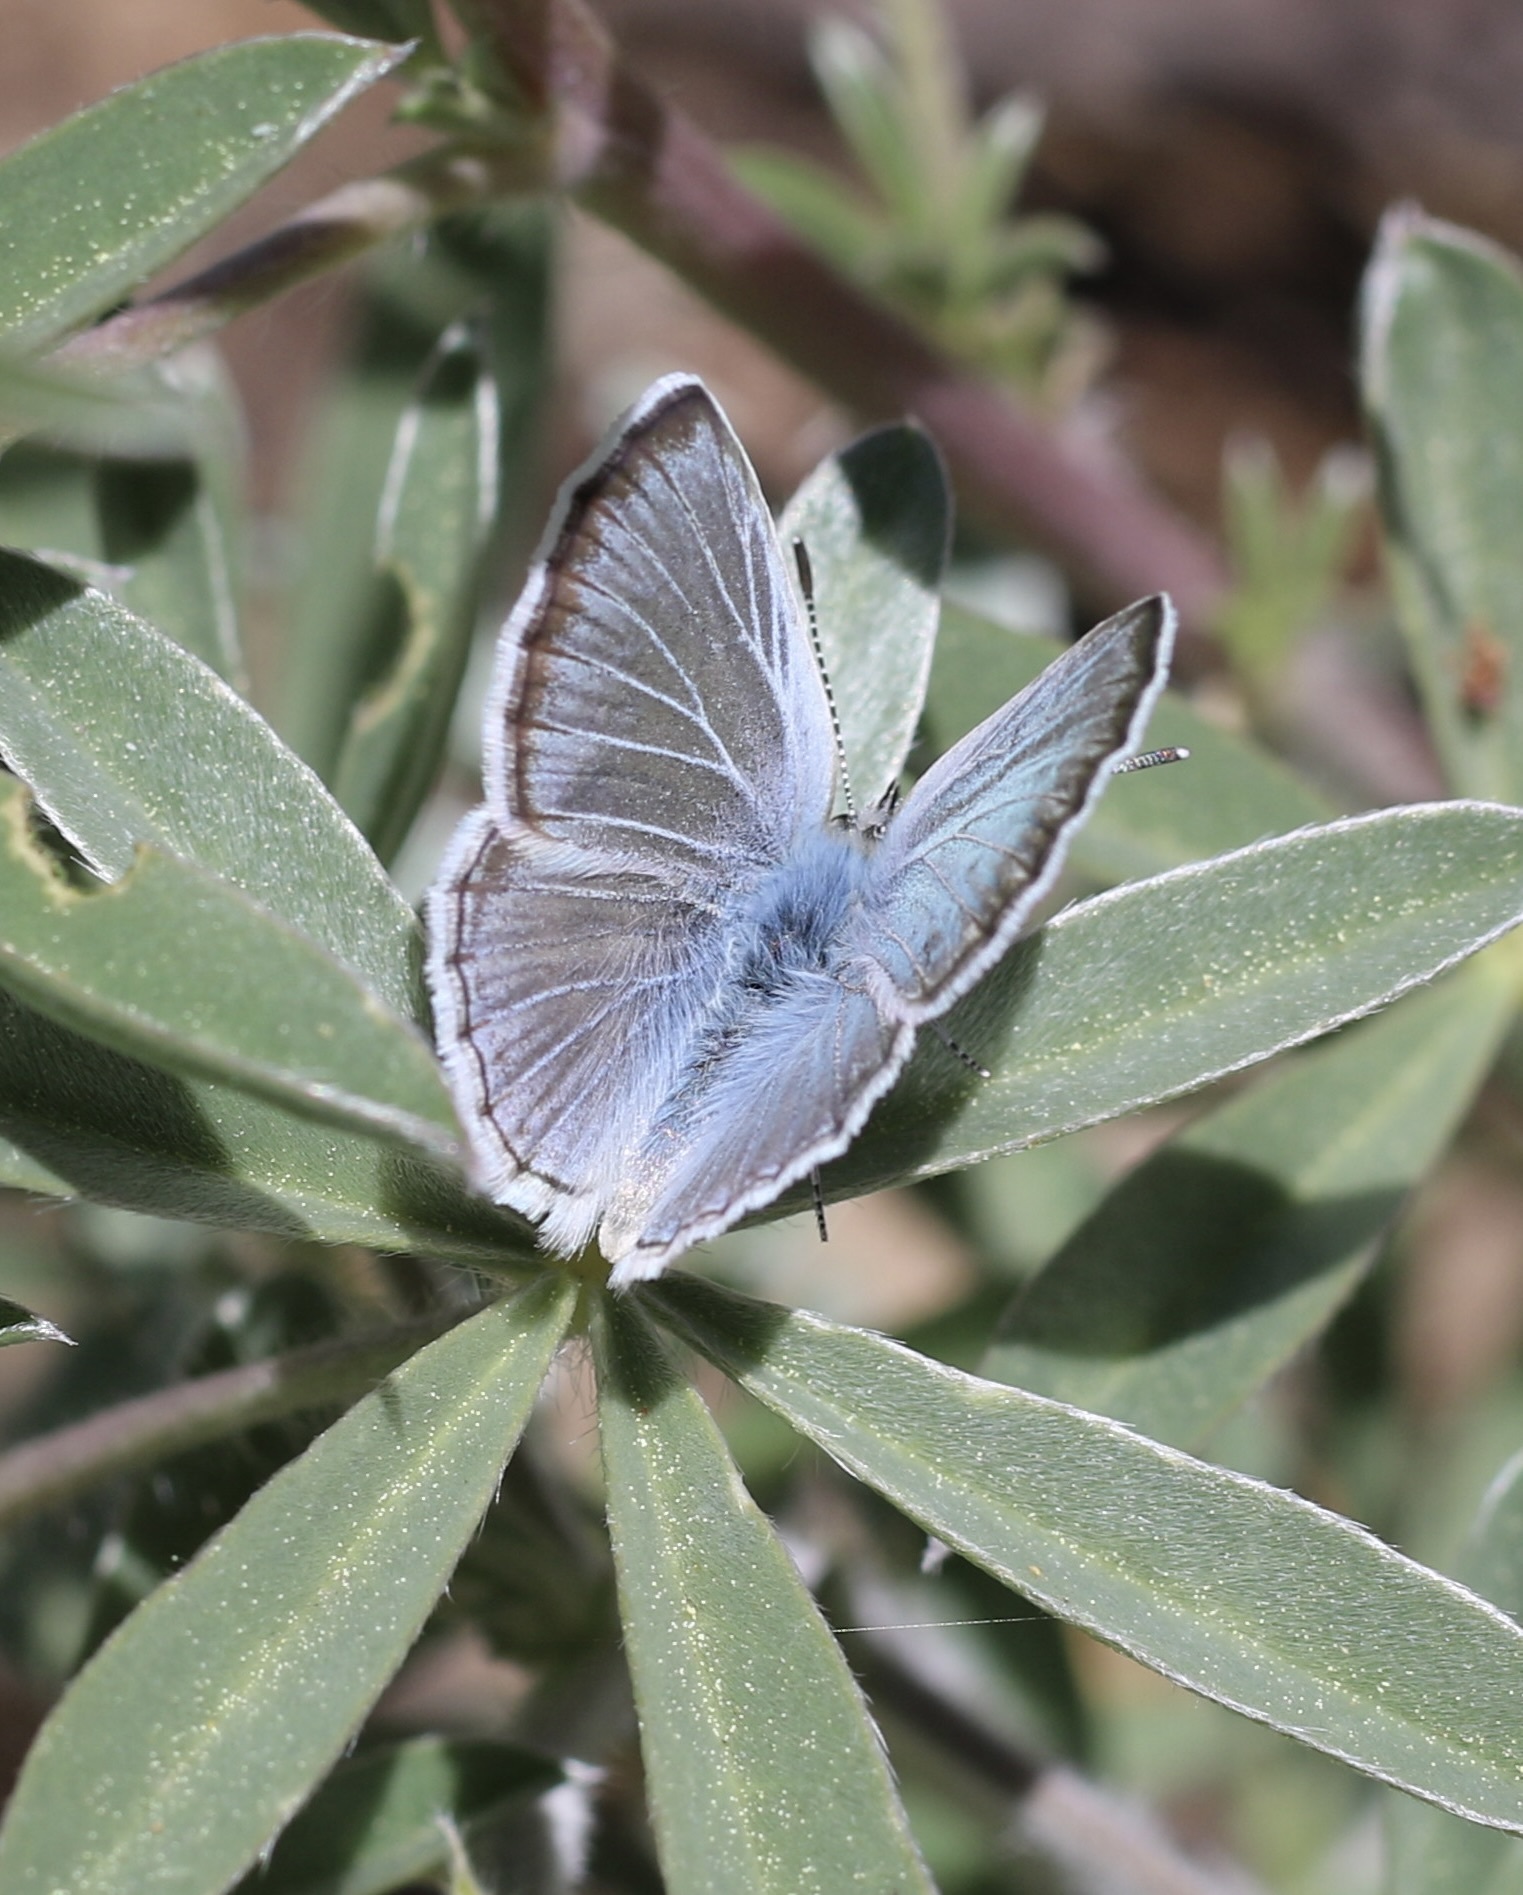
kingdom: Animalia
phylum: Arthropoda
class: Insecta
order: Lepidoptera
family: Lycaenidae
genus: Icaricia
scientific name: Icaricia icarioides
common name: Boisduval's blue
